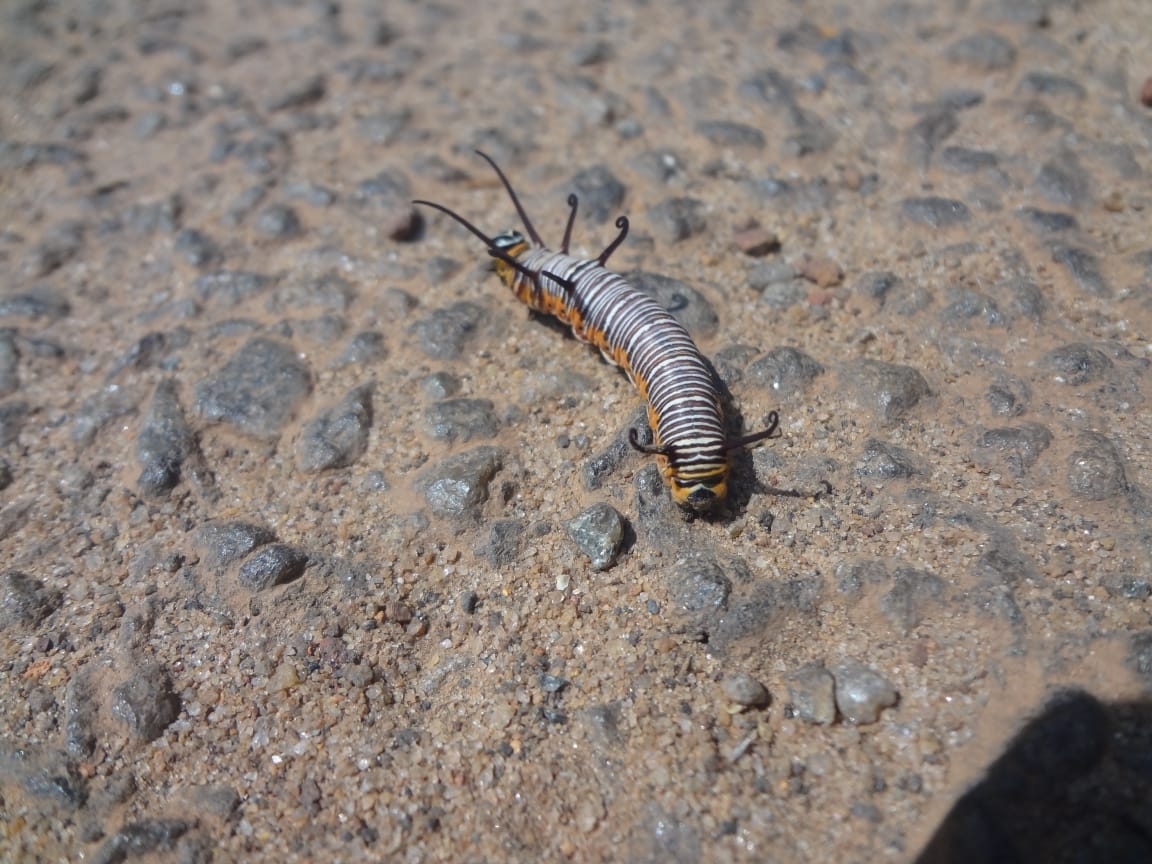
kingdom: Animalia
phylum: Arthropoda
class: Insecta
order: Lepidoptera
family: Nymphalidae
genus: Euploea
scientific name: Euploea core
